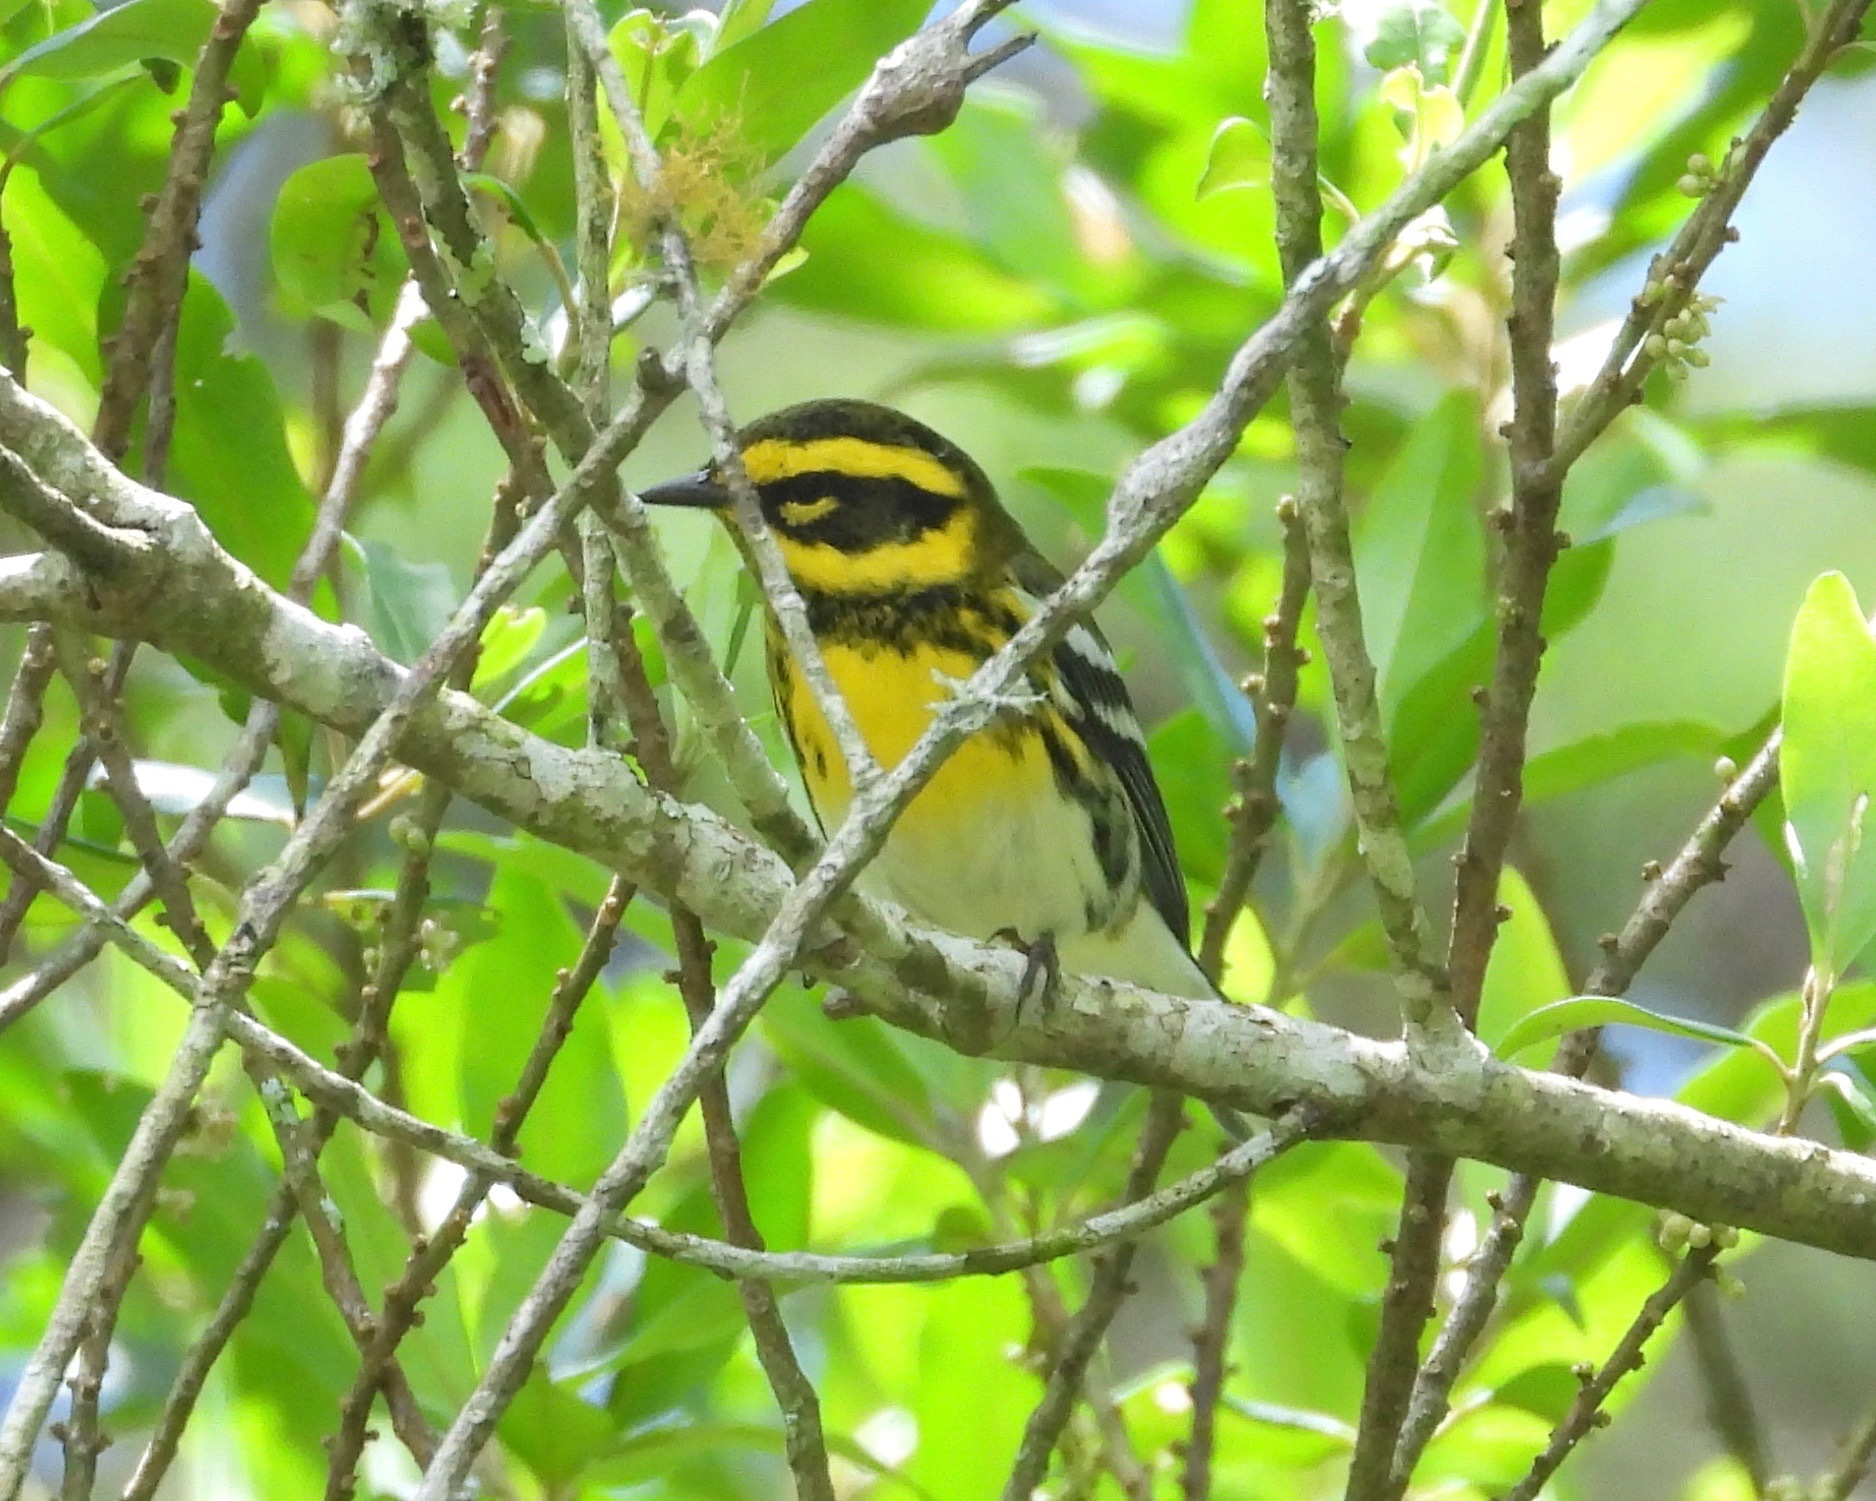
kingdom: Animalia
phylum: Chordata
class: Aves
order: Passeriformes
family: Parulidae
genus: Setophaga
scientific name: Setophaga townsendi
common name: Townsend's warbler
